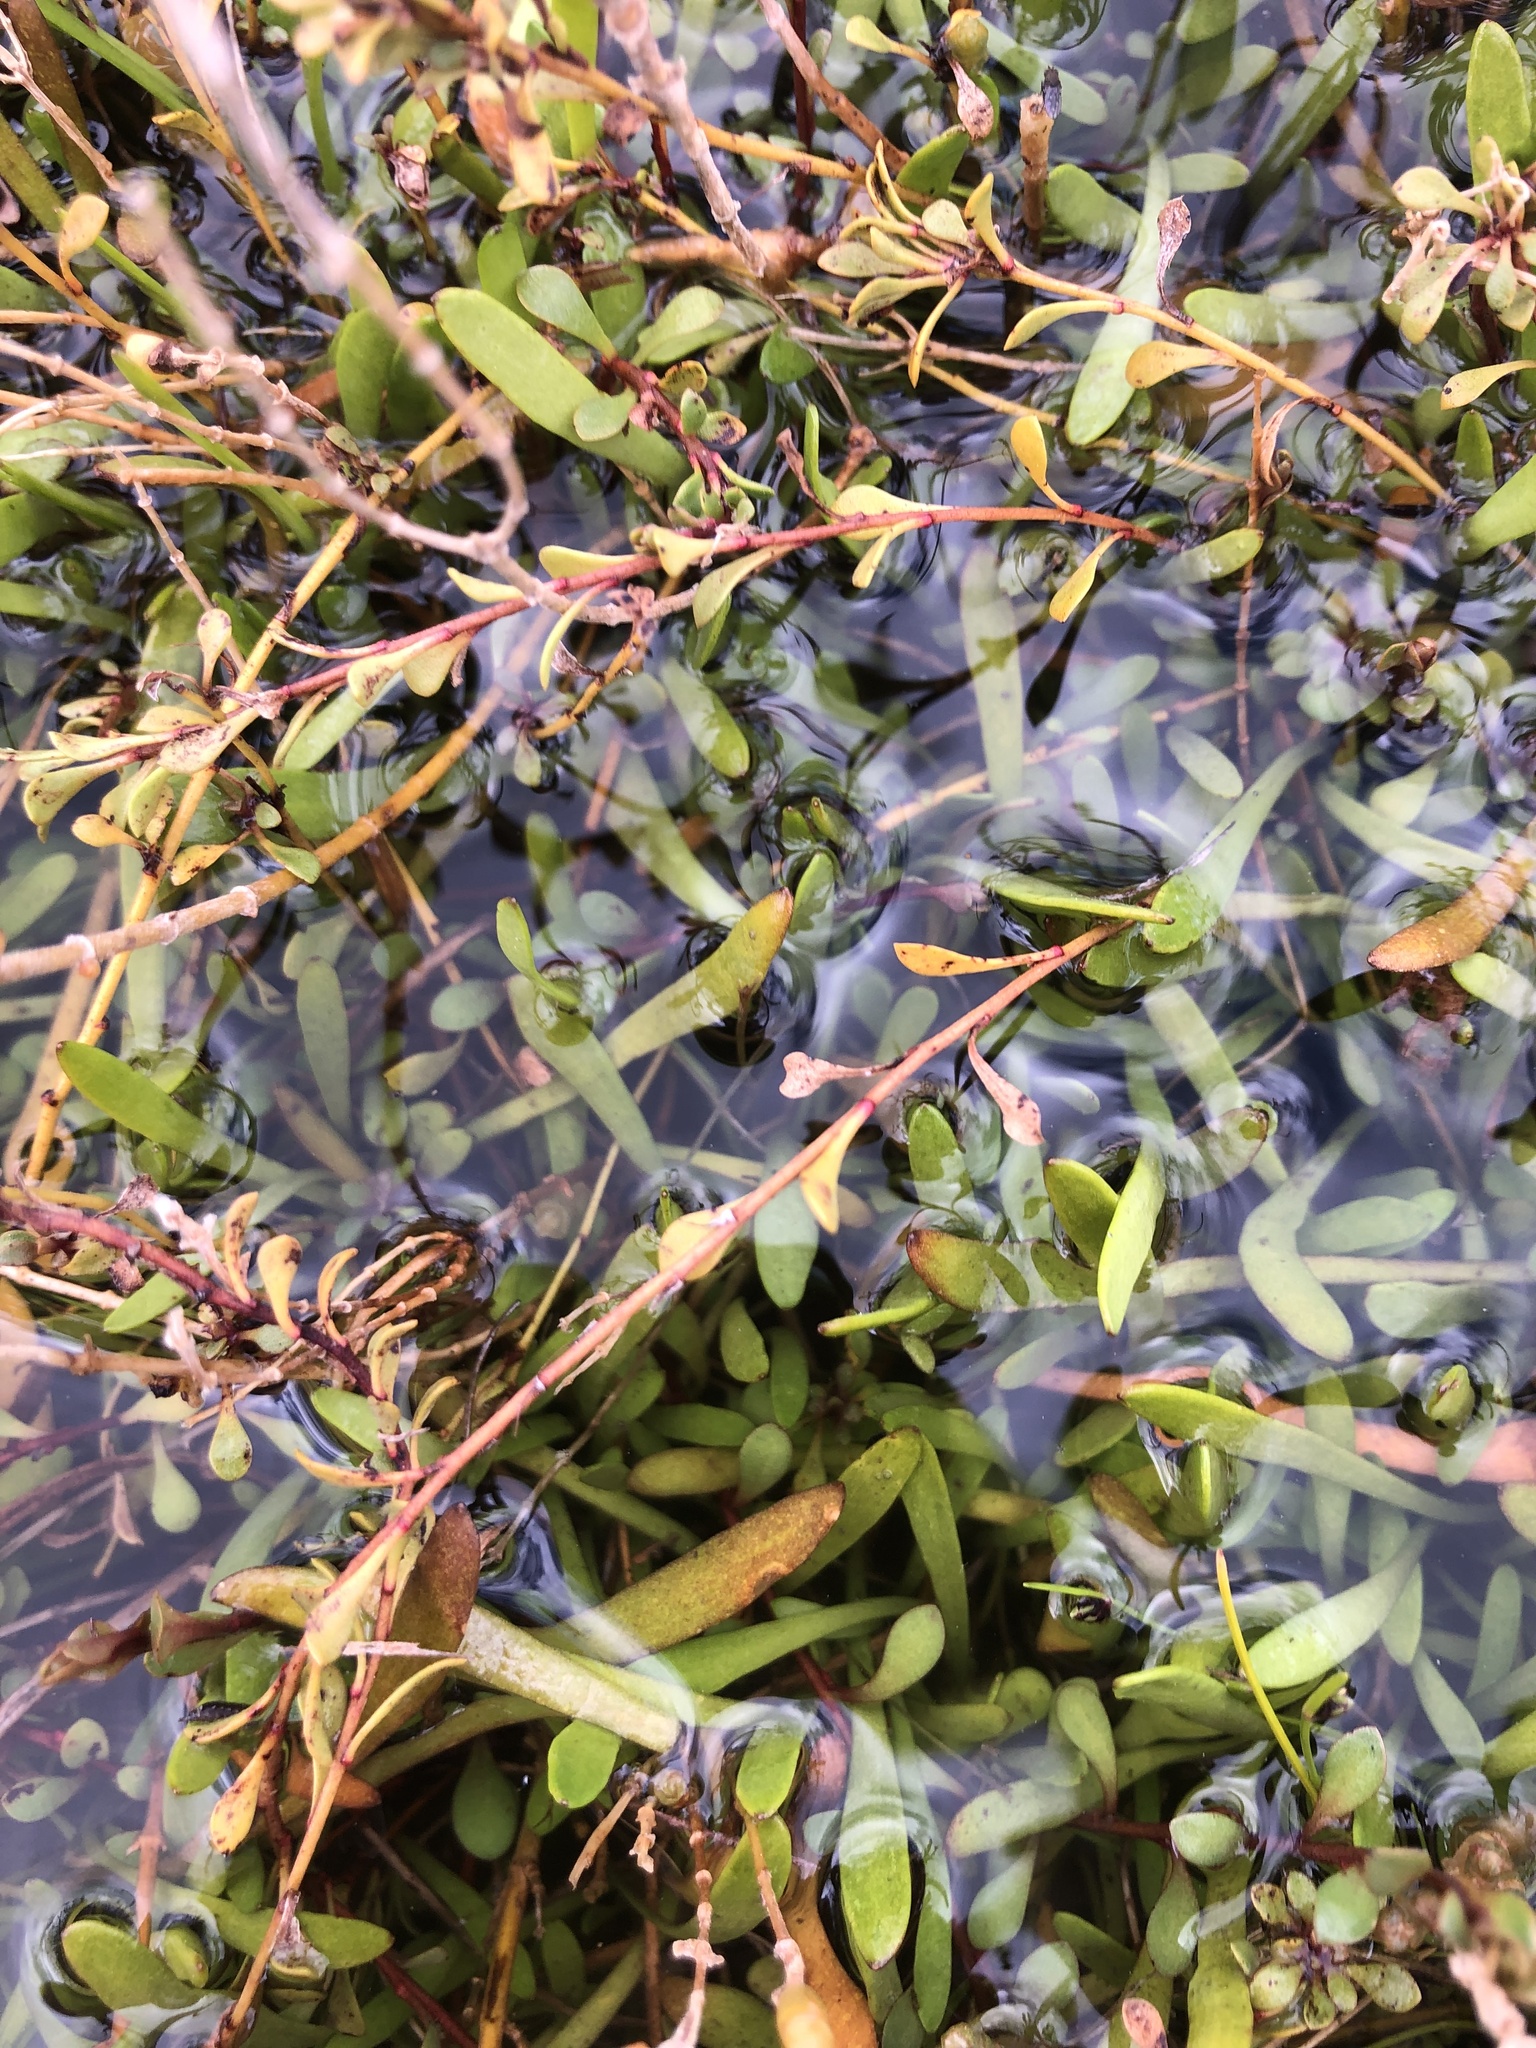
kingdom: Plantae
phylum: Tracheophyta
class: Magnoliopsida
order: Asterales
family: Goodeniaceae
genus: Goodenia
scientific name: Goodenia radicans
